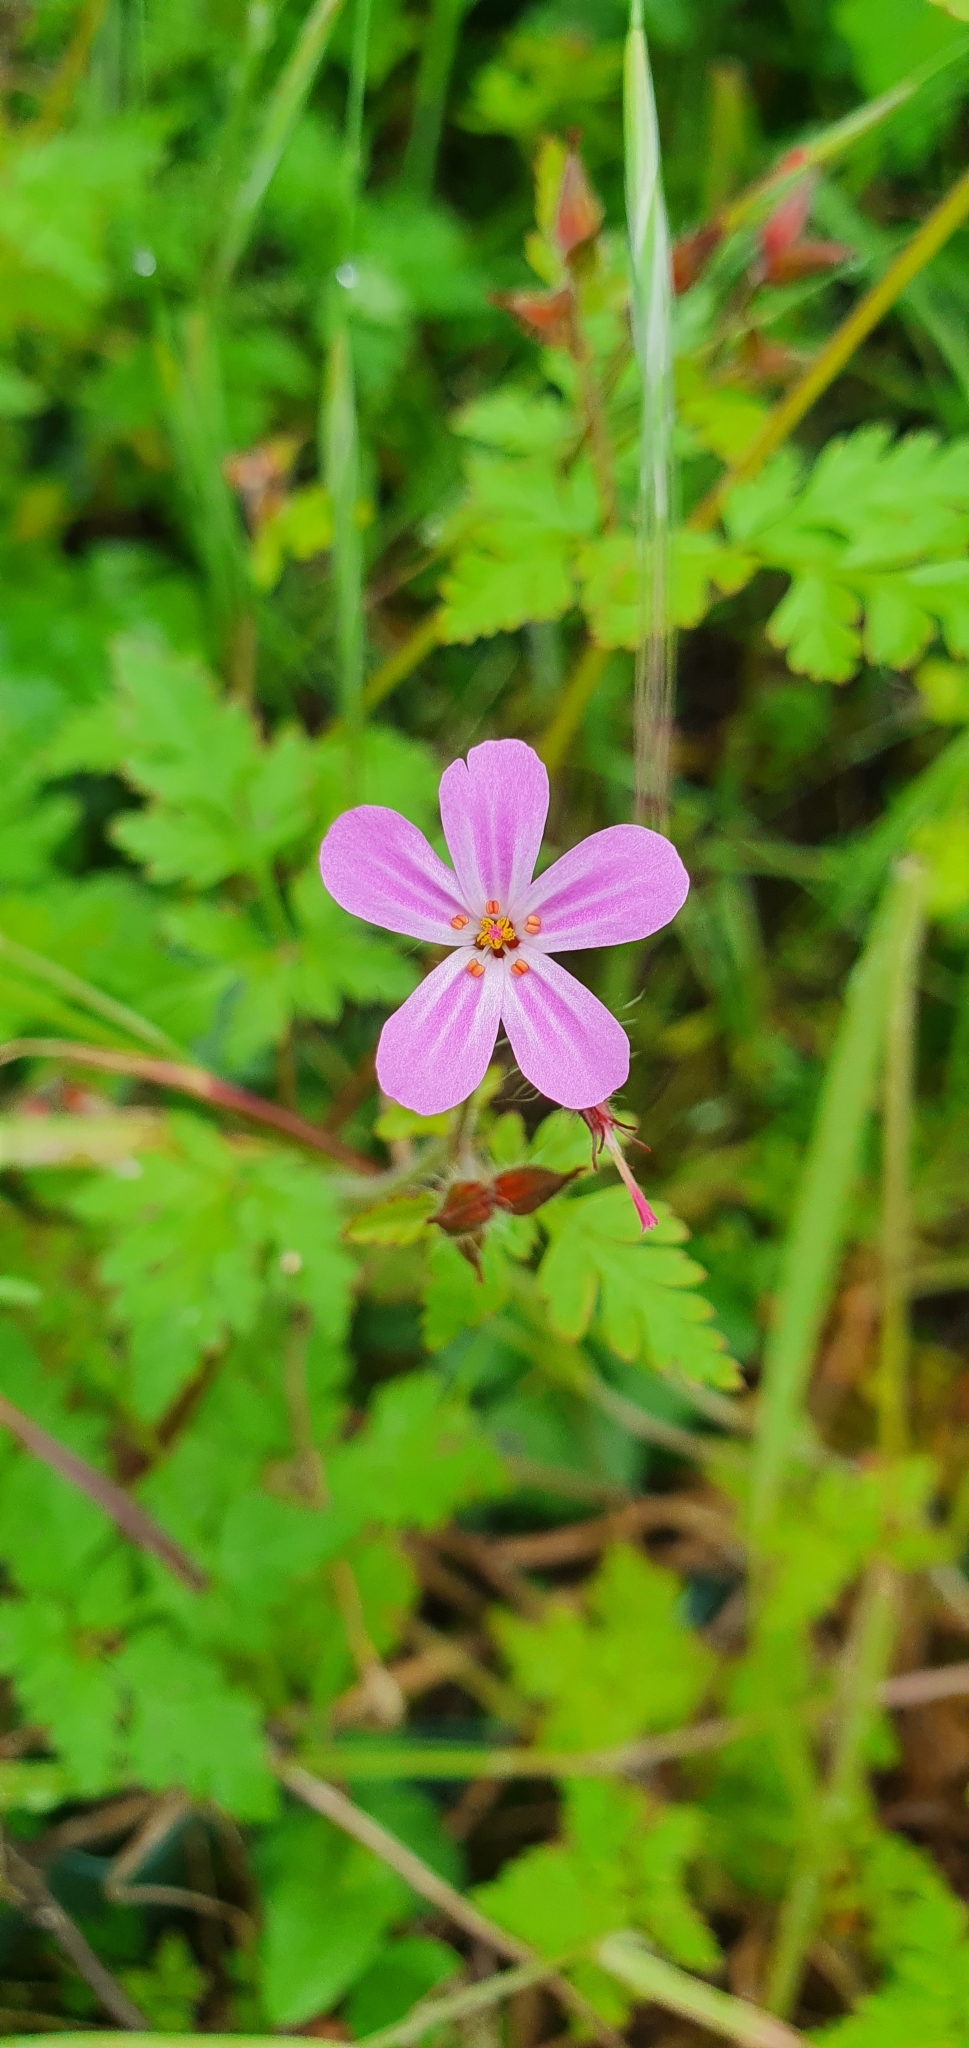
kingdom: Plantae
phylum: Tracheophyta
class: Magnoliopsida
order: Geraniales
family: Geraniaceae
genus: Geranium
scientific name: Geranium robertianum
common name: Herb-robert
